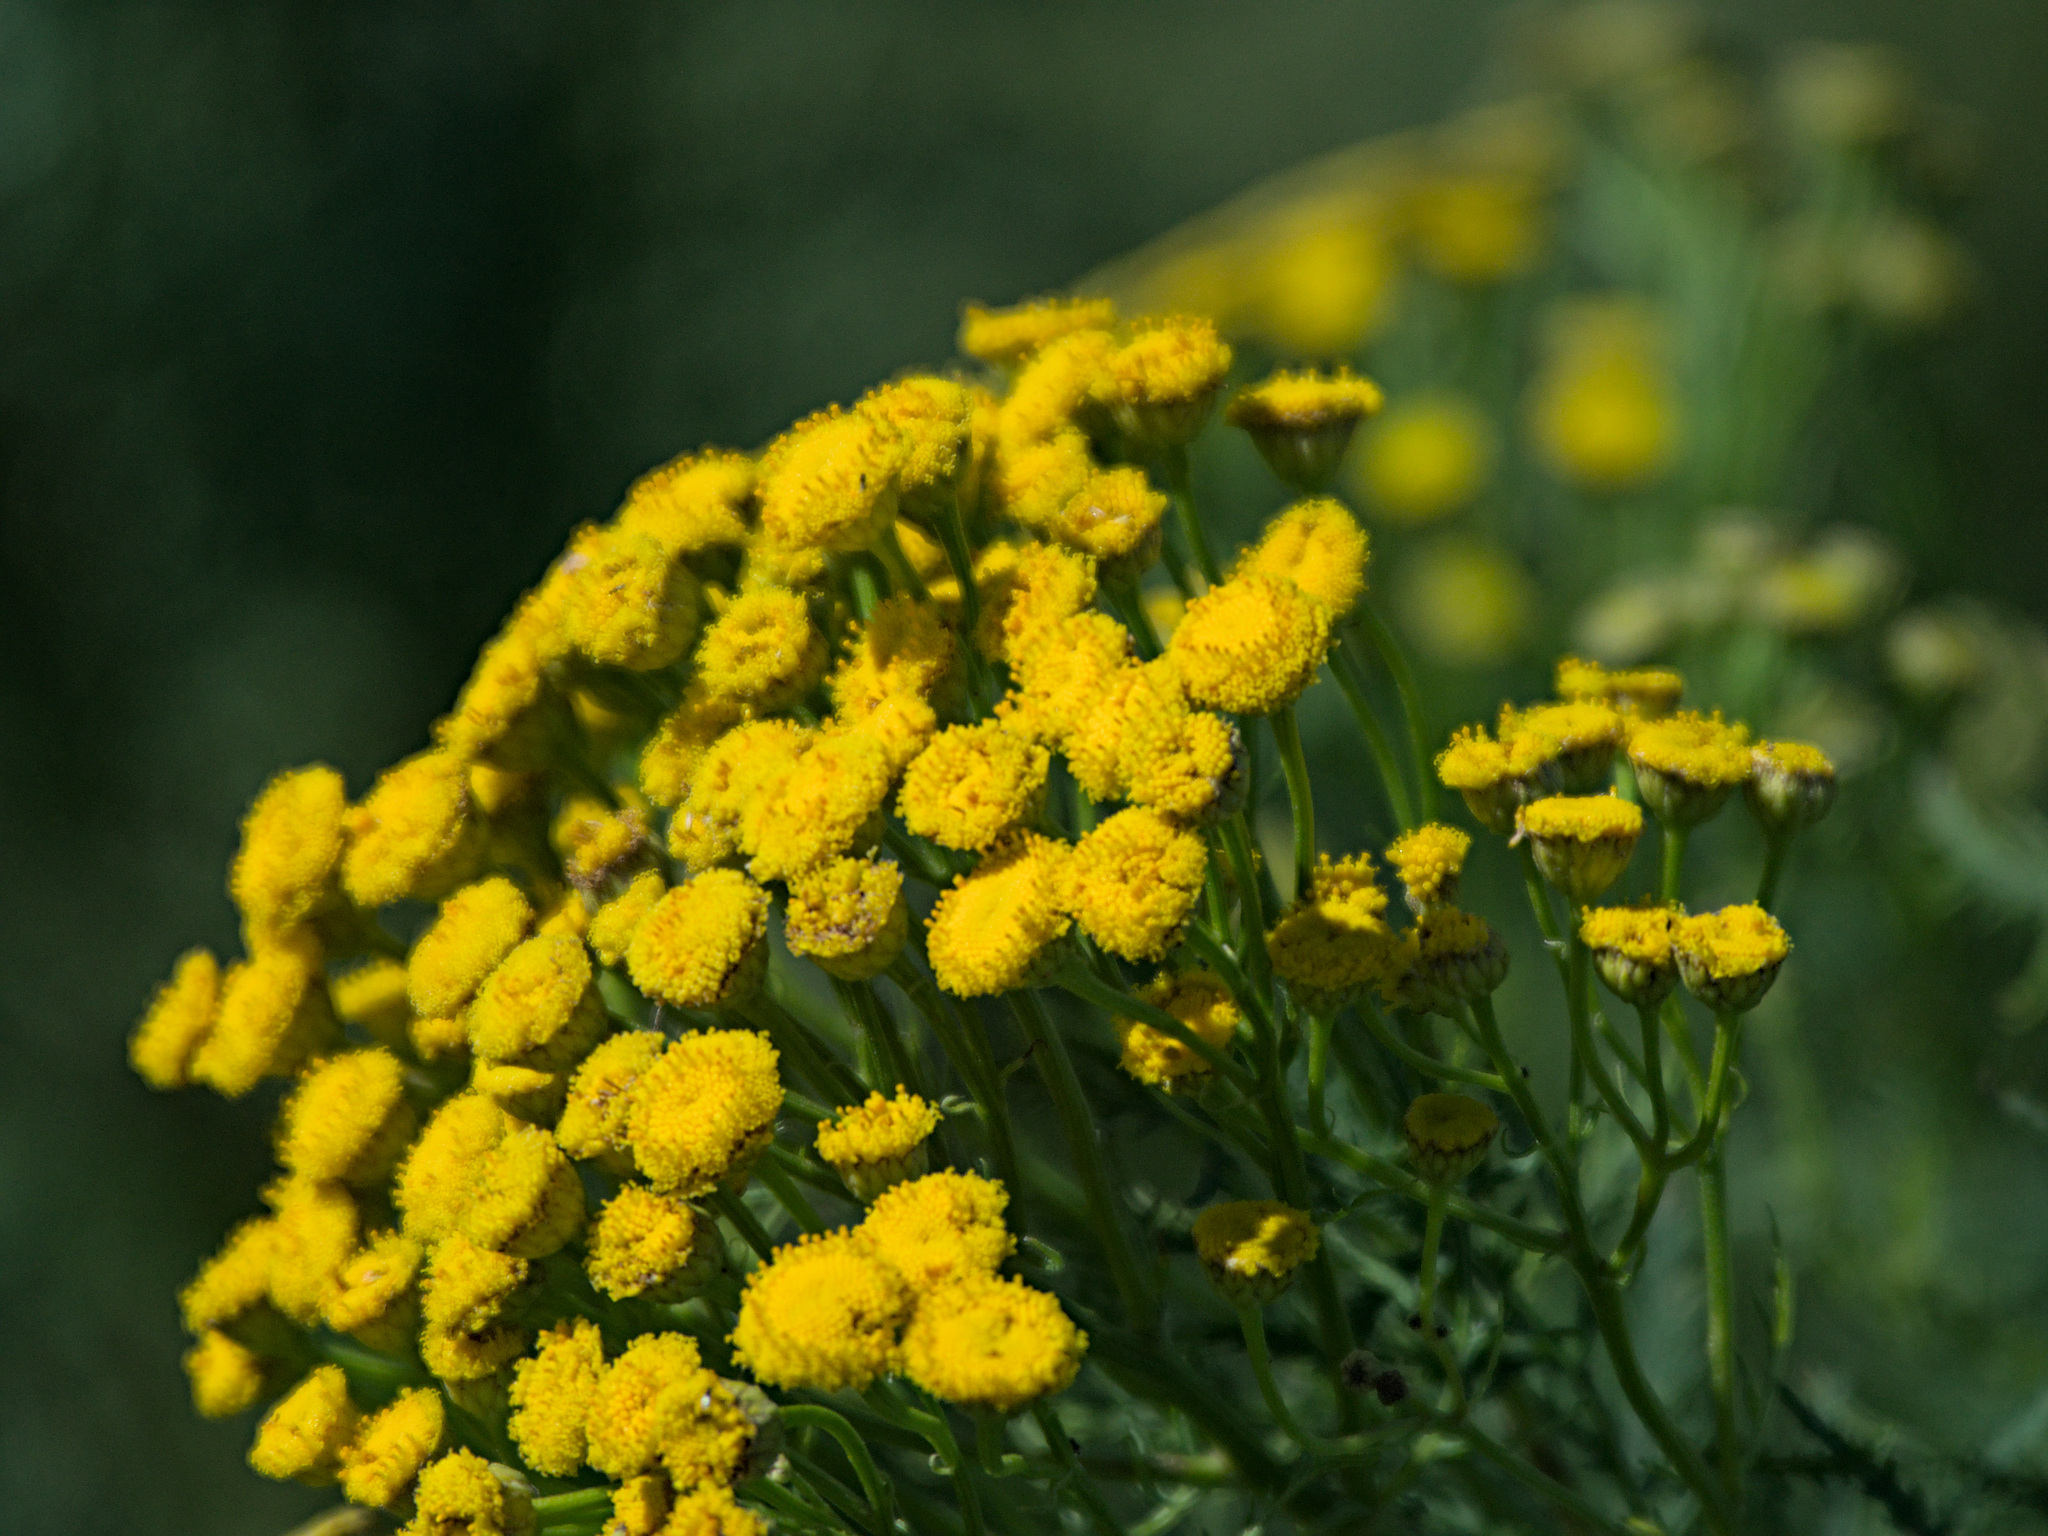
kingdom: Plantae
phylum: Tracheophyta
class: Magnoliopsida
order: Asterales
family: Asteraceae
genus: Tanacetum
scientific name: Tanacetum vulgare
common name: Common tansy
